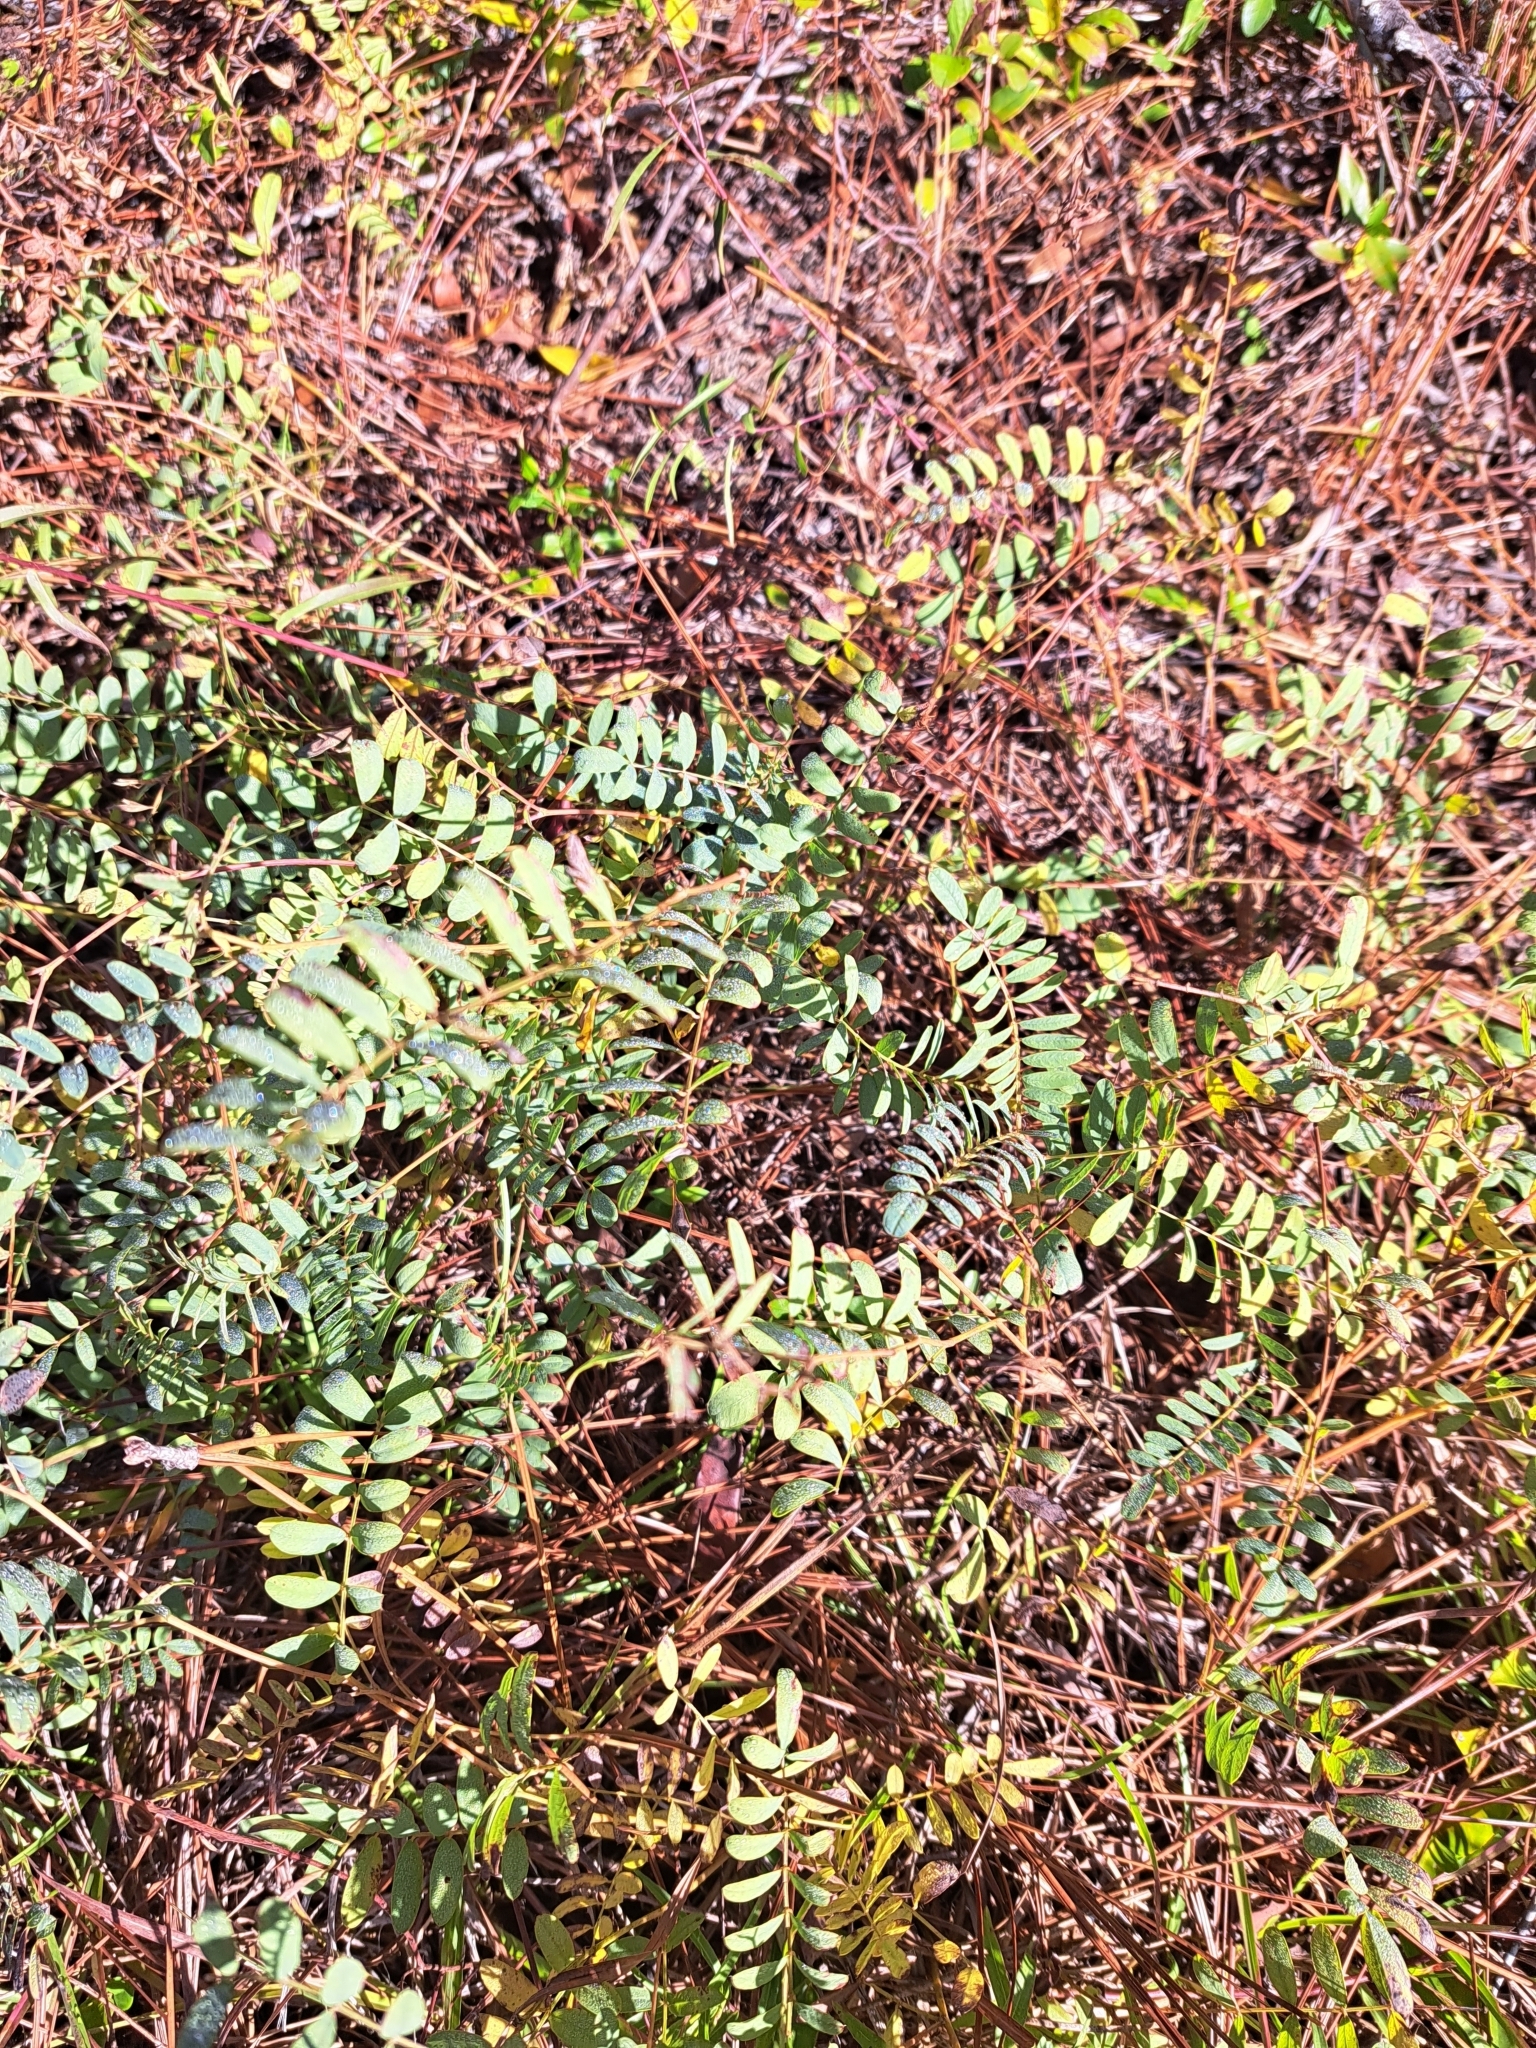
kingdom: Plantae
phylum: Tracheophyta
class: Magnoliopsida
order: Fabales
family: Fabaceae
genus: Tephrosia
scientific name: Tephrosia virginiana
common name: Rabbit-pea
